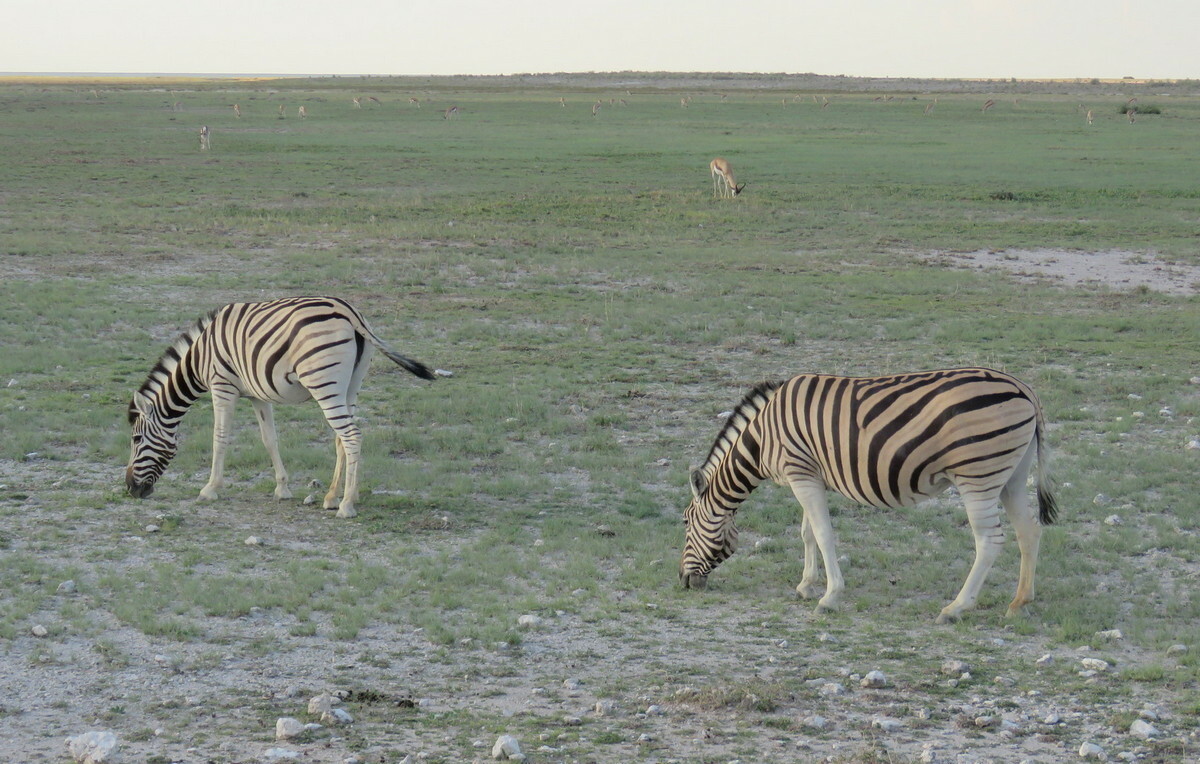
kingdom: Animalia
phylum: Chordata
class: Mammalia
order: Perissodactyla
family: Equidae
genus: Equus
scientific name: Equus quagga
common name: Plains zebra
